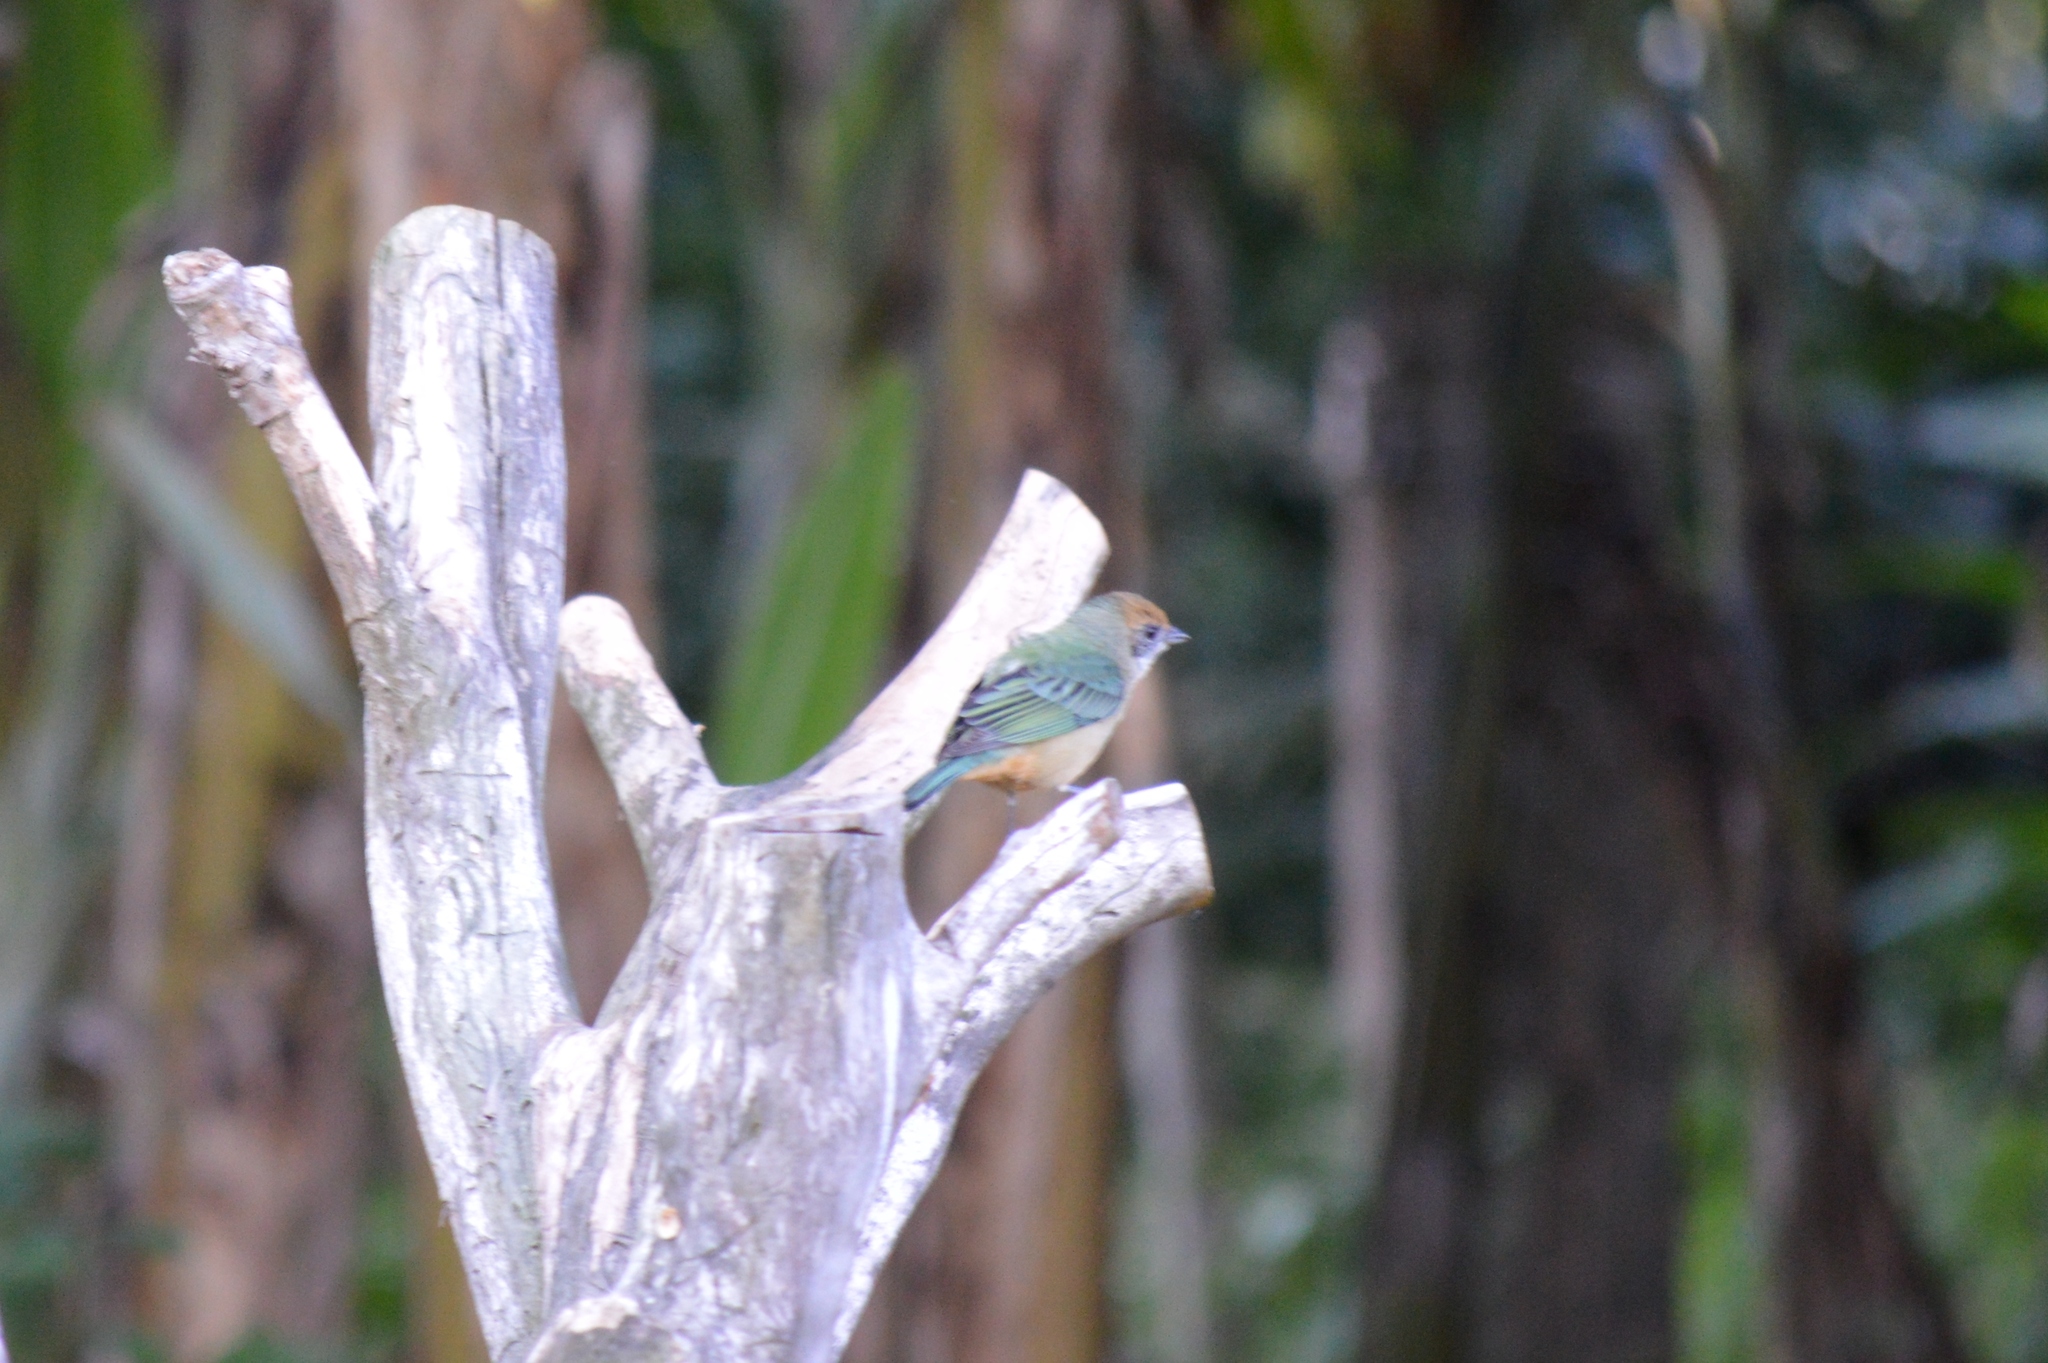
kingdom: Animalia
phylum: Chordata
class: Aves
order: Passeriformes
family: Thraupidae
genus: Stilpnia
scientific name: Stilpnia cayana
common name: Burnished-buff tanager
